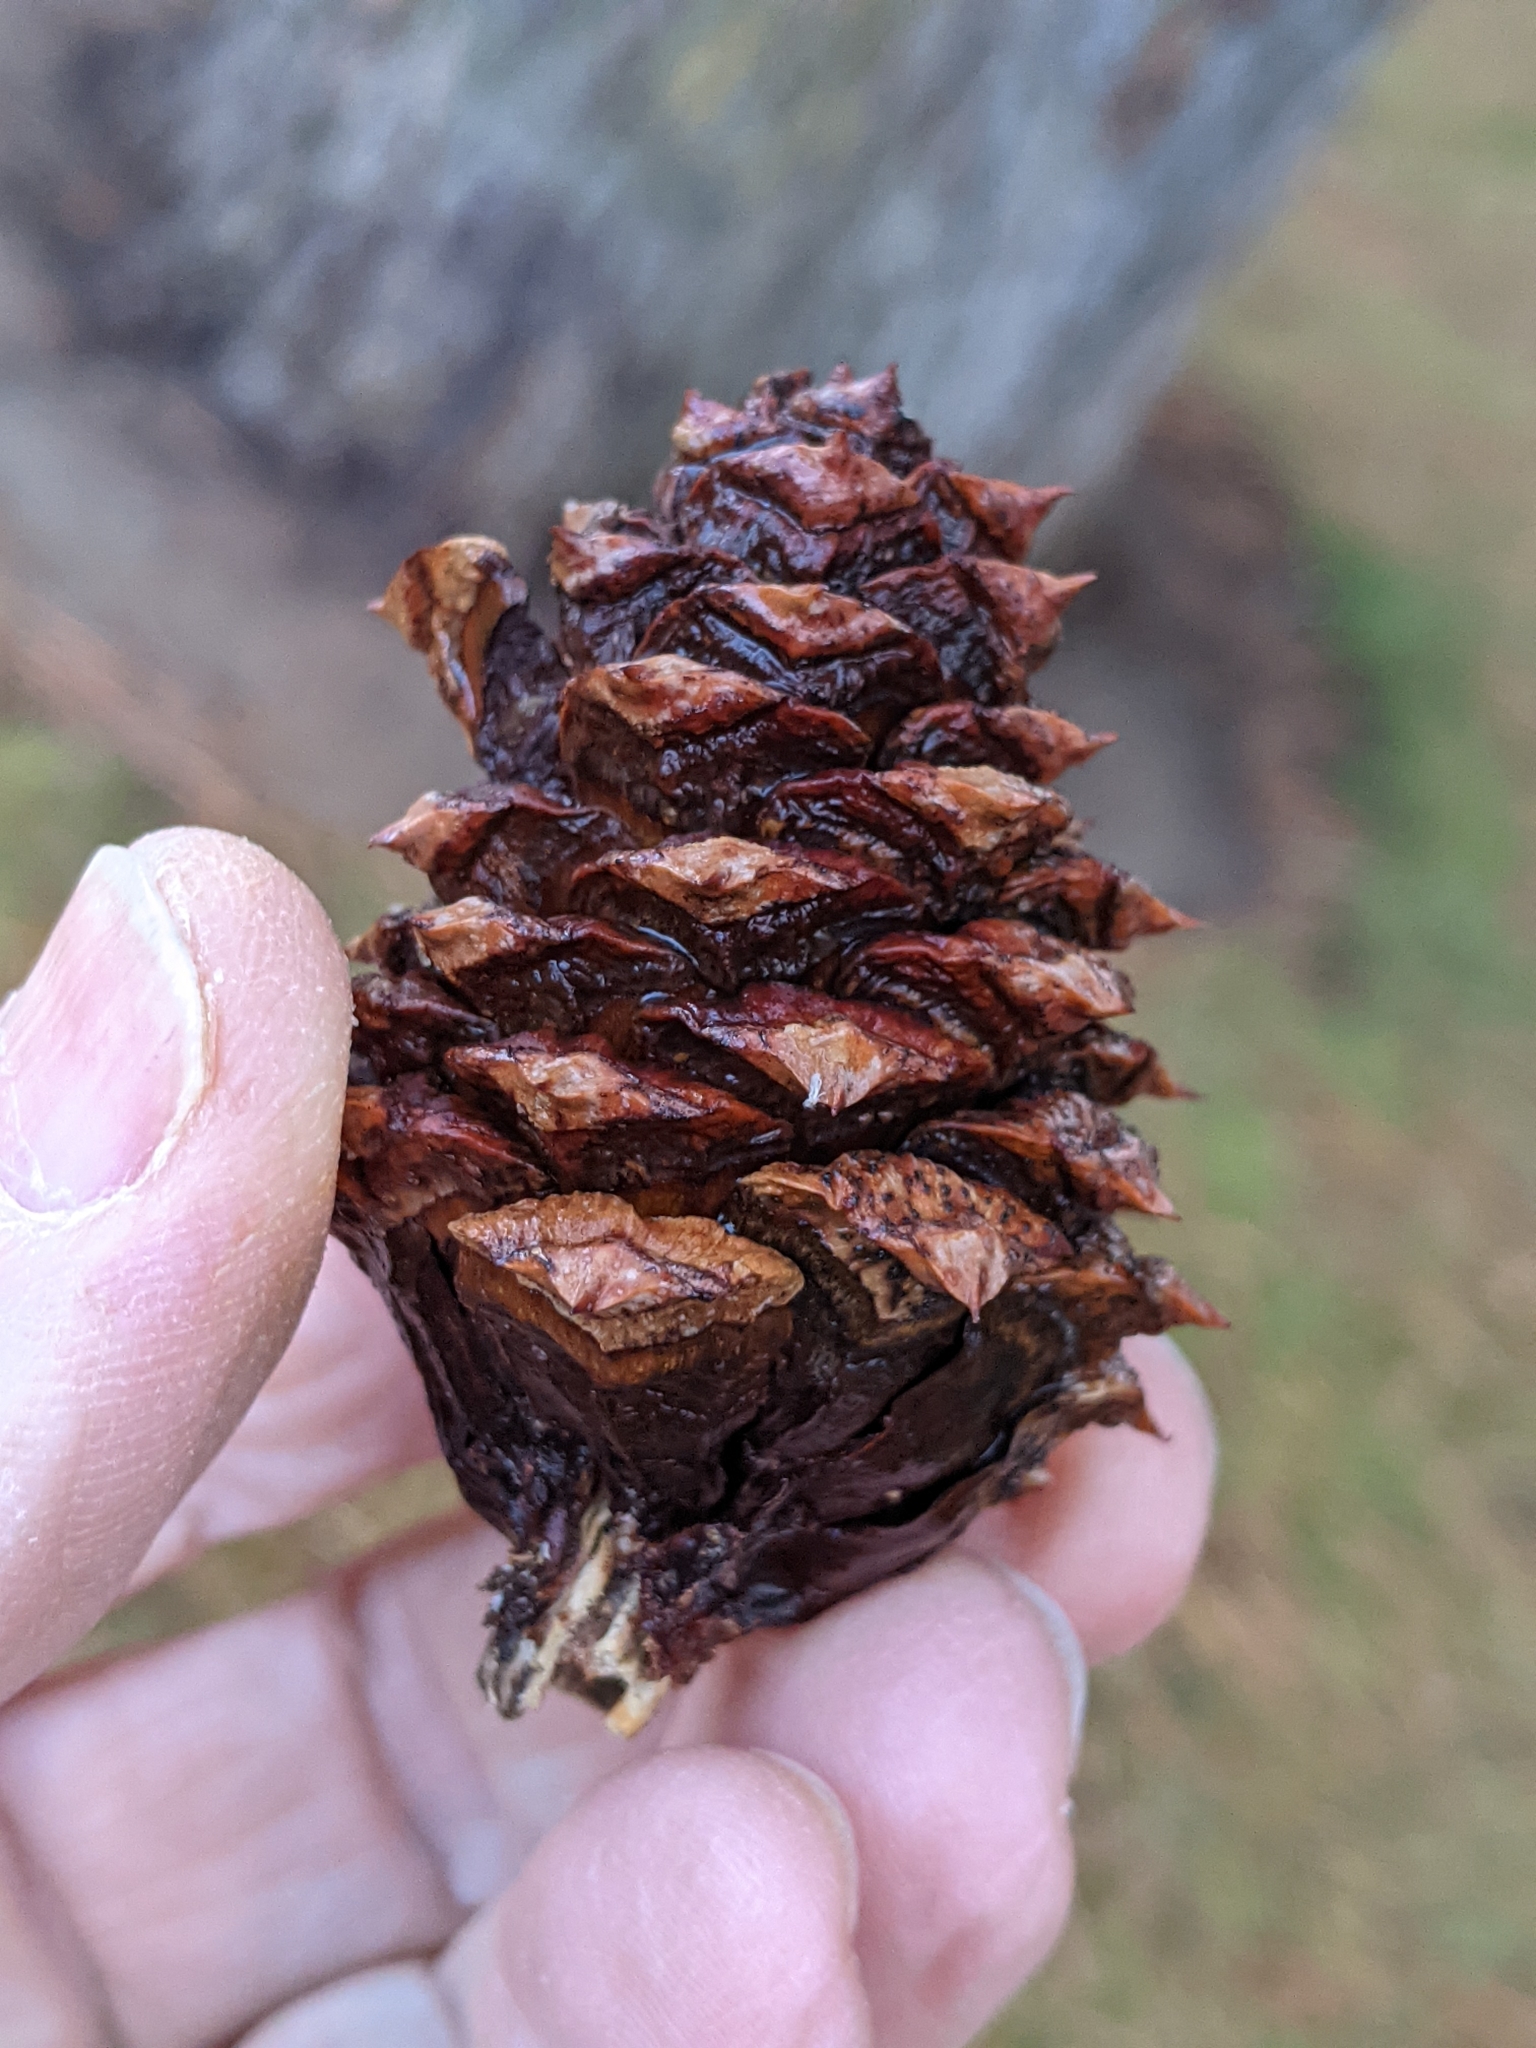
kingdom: Plantae
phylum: Tracheophyta
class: Pinopsida
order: Pinales
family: Pinaceae
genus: Pinus
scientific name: Pinus ponderosa
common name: Western yellow-pine
